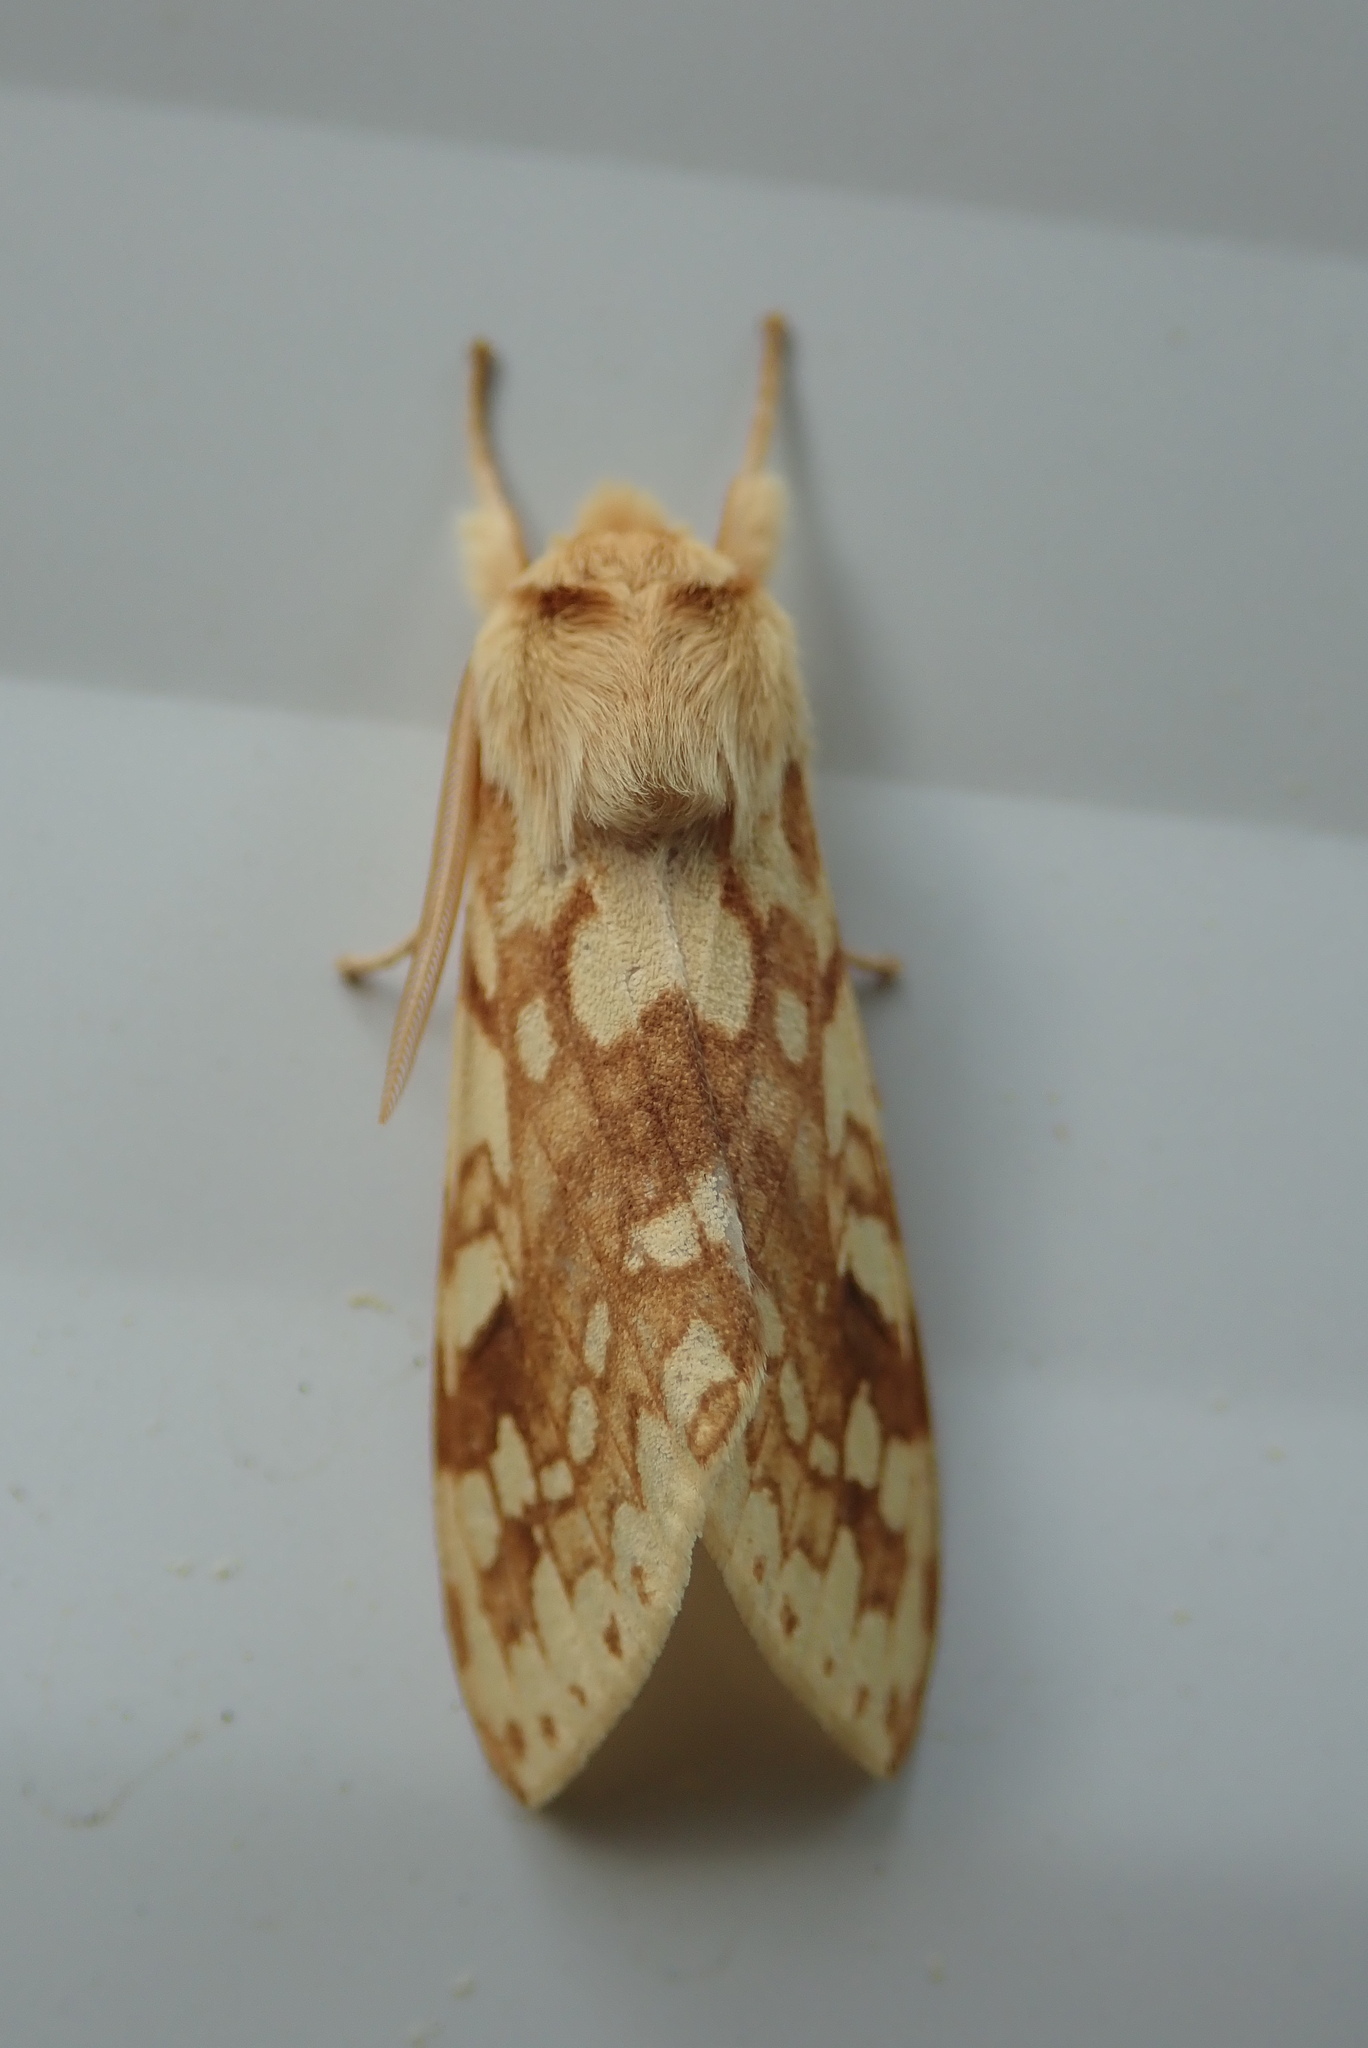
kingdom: Animalia
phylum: Arthropoda
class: Insecta
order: Lepidoptera
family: Erebidae
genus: Lophocampa
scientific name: Lophocampa maculata
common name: Spotted tussock moth
